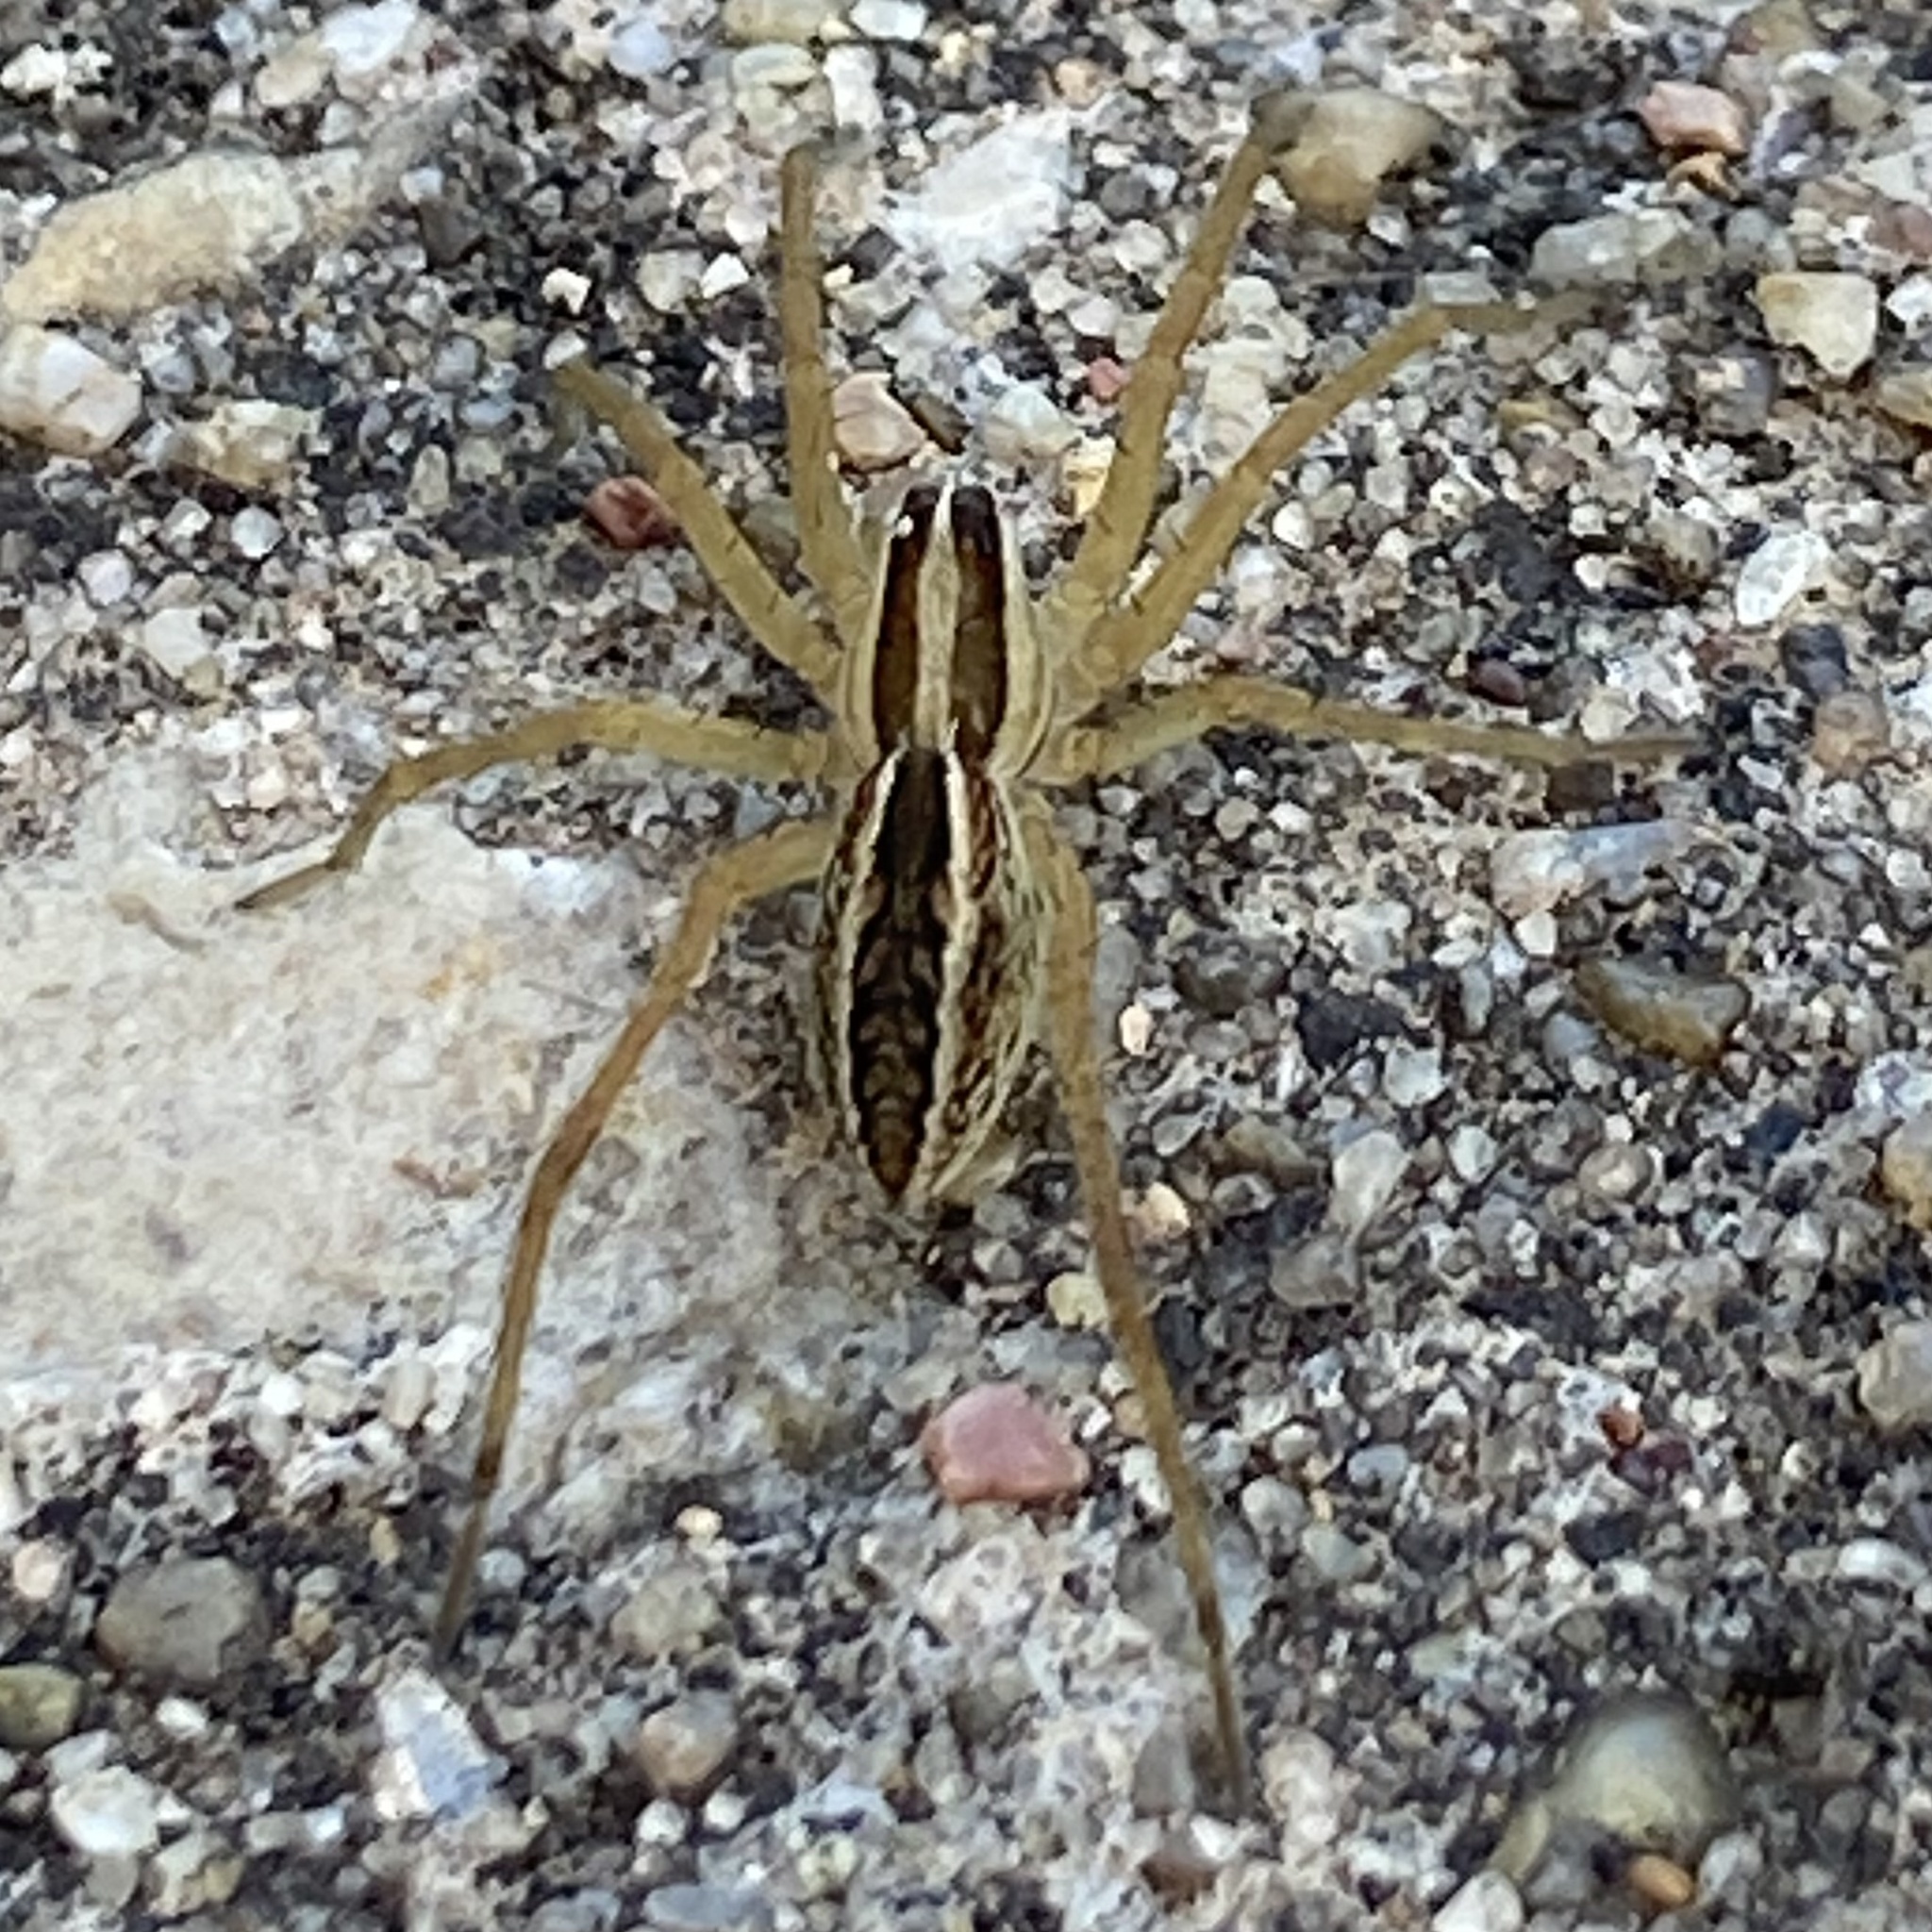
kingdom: Animalia
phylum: Arthropoda
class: Arachnida
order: Araneae
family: Lycosidae
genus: Rabidosa
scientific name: Rabidosa rabida
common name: Rabid wolf spider
